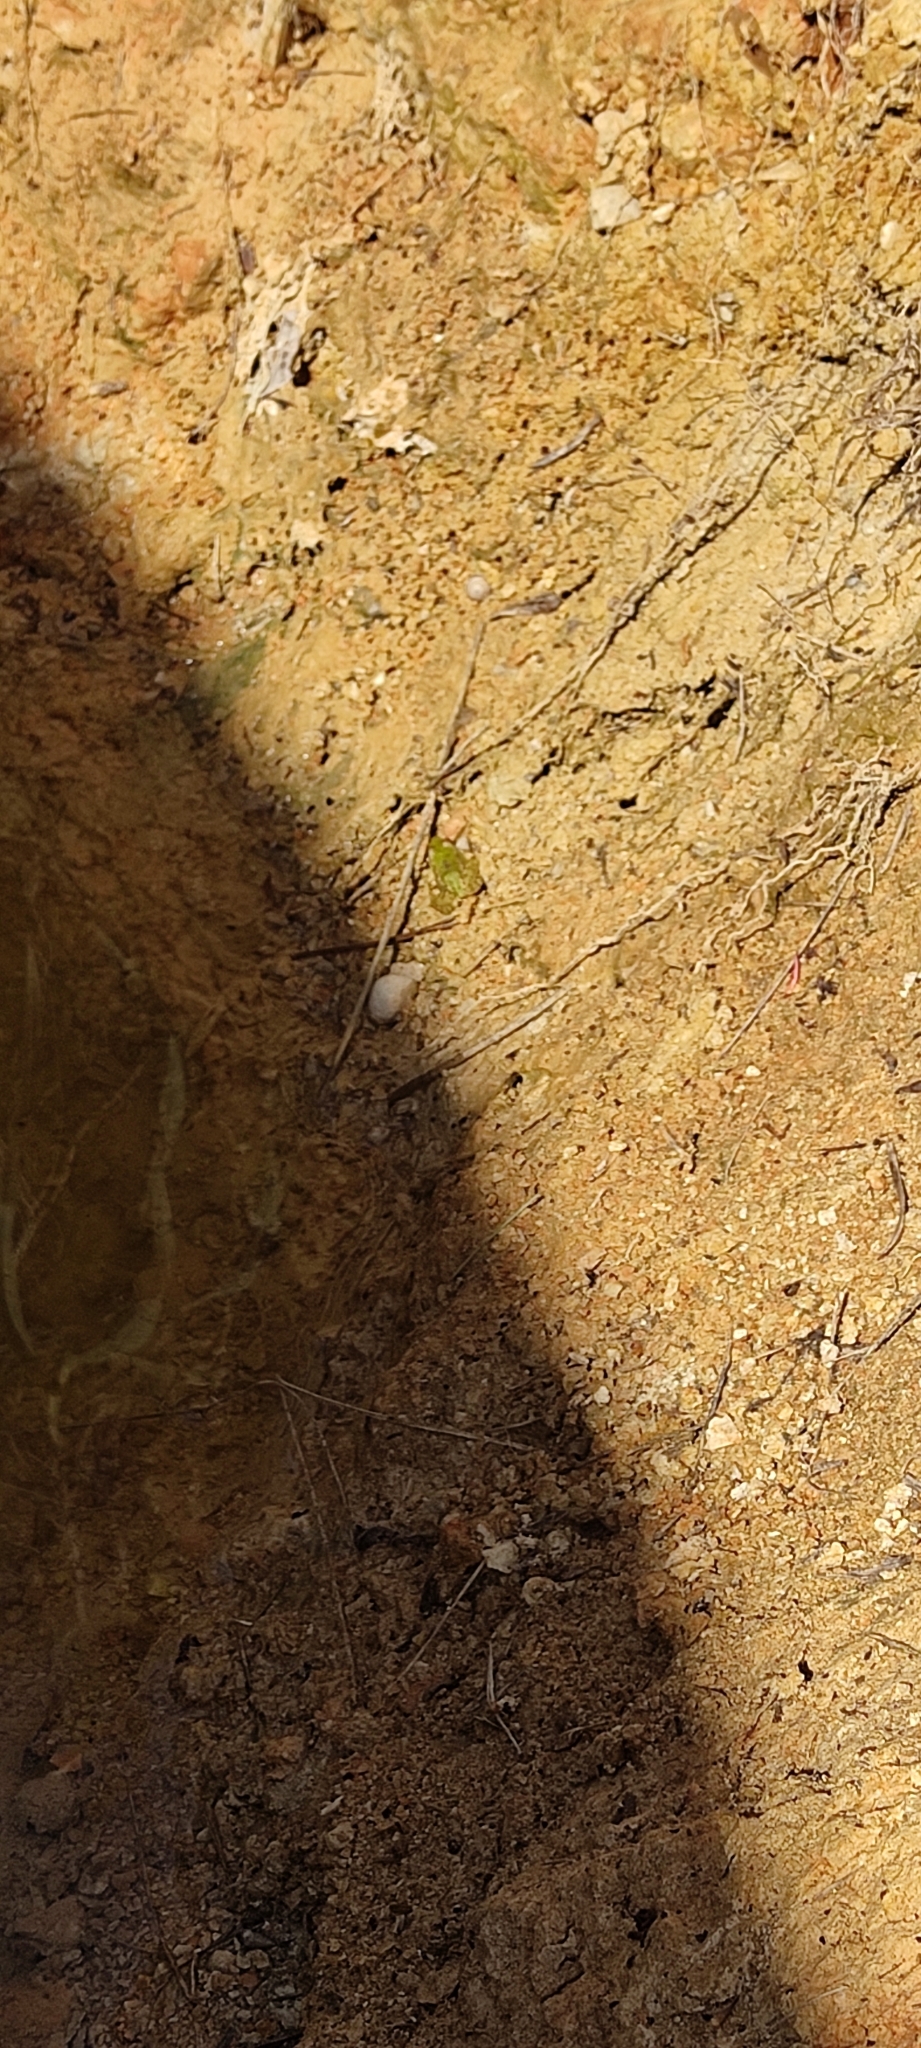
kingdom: Animalia
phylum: Chordata
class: Amphibia
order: Anura
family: Ranidae
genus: Pelophylax
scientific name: Pelophylax
